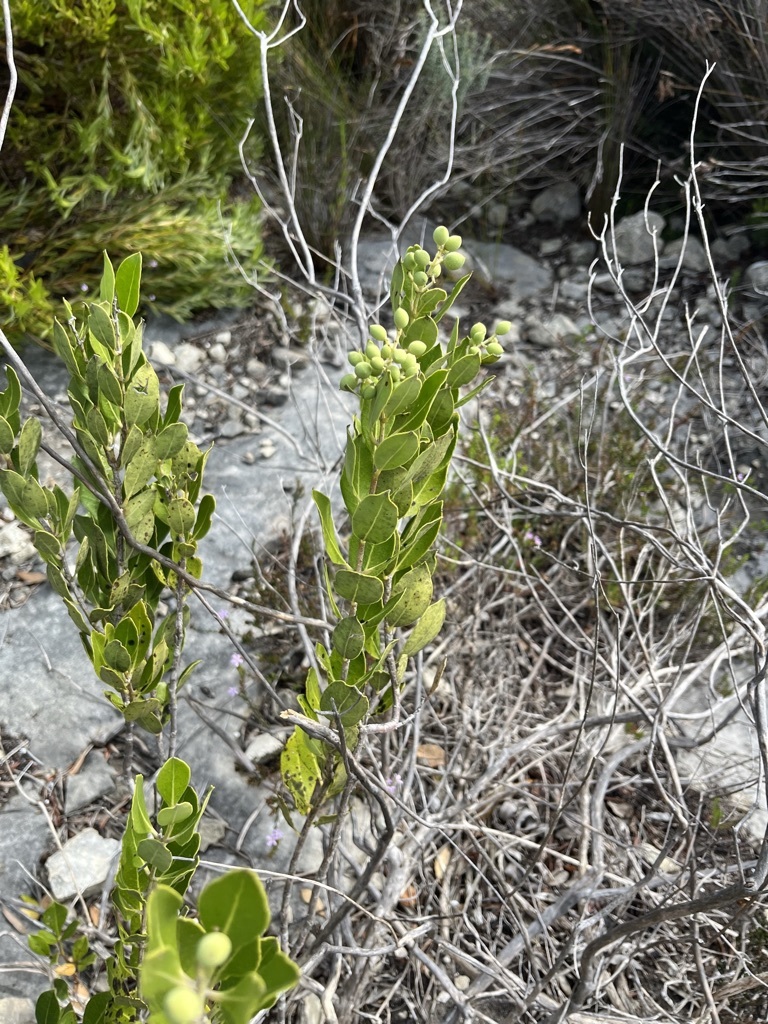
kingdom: Plantae
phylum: Tracheophyta
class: Magnoliopsida
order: Lamiales
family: Oleaceae
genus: Olea
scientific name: Olea capensis
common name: Black ironwood
